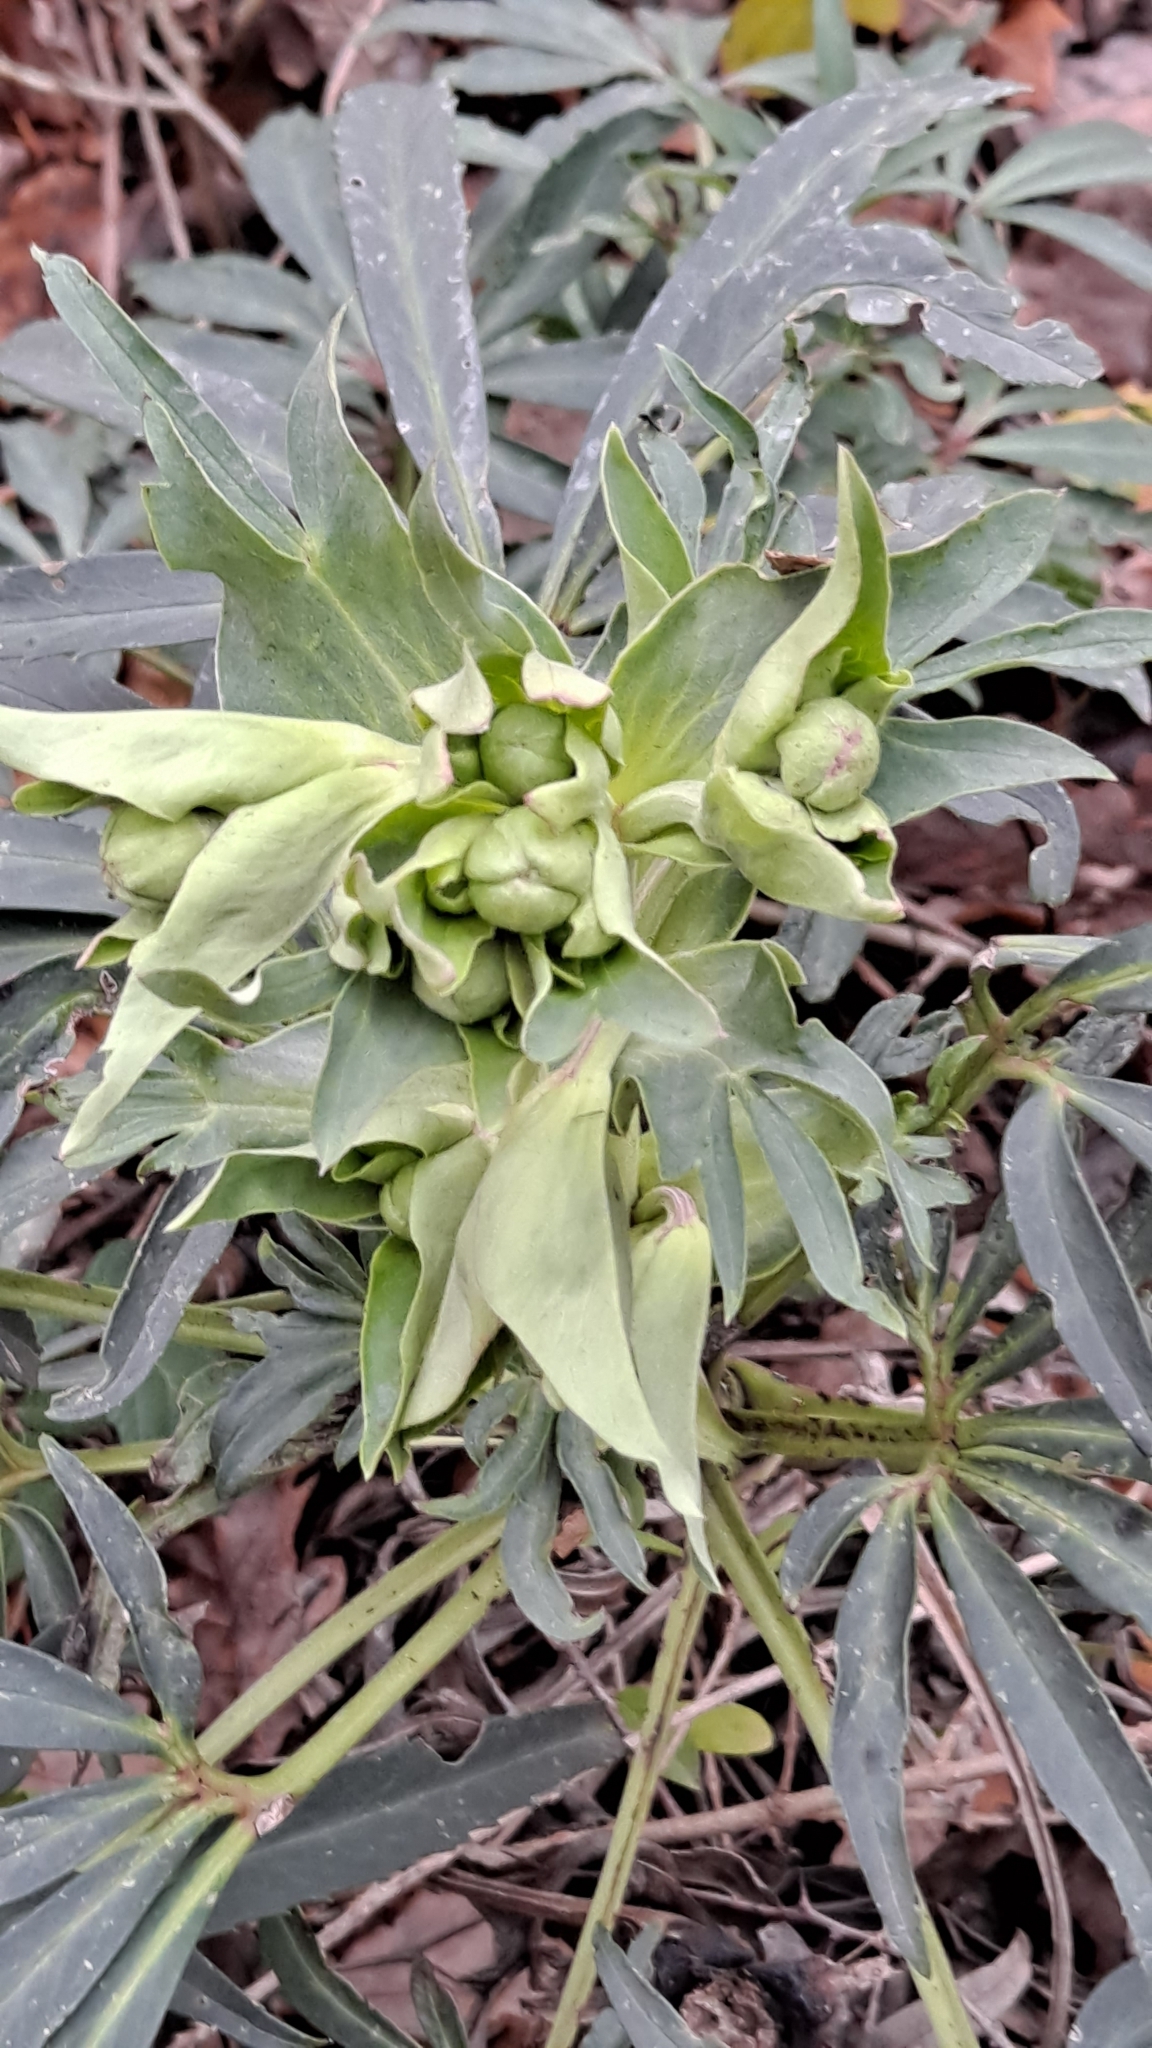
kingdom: Plantae
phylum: Tracheophyta
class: Magnoliopsida
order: Ranunculales
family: Ranunculaceae
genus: Helleborus
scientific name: Helleborus foetidus
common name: Stinking hellebore
